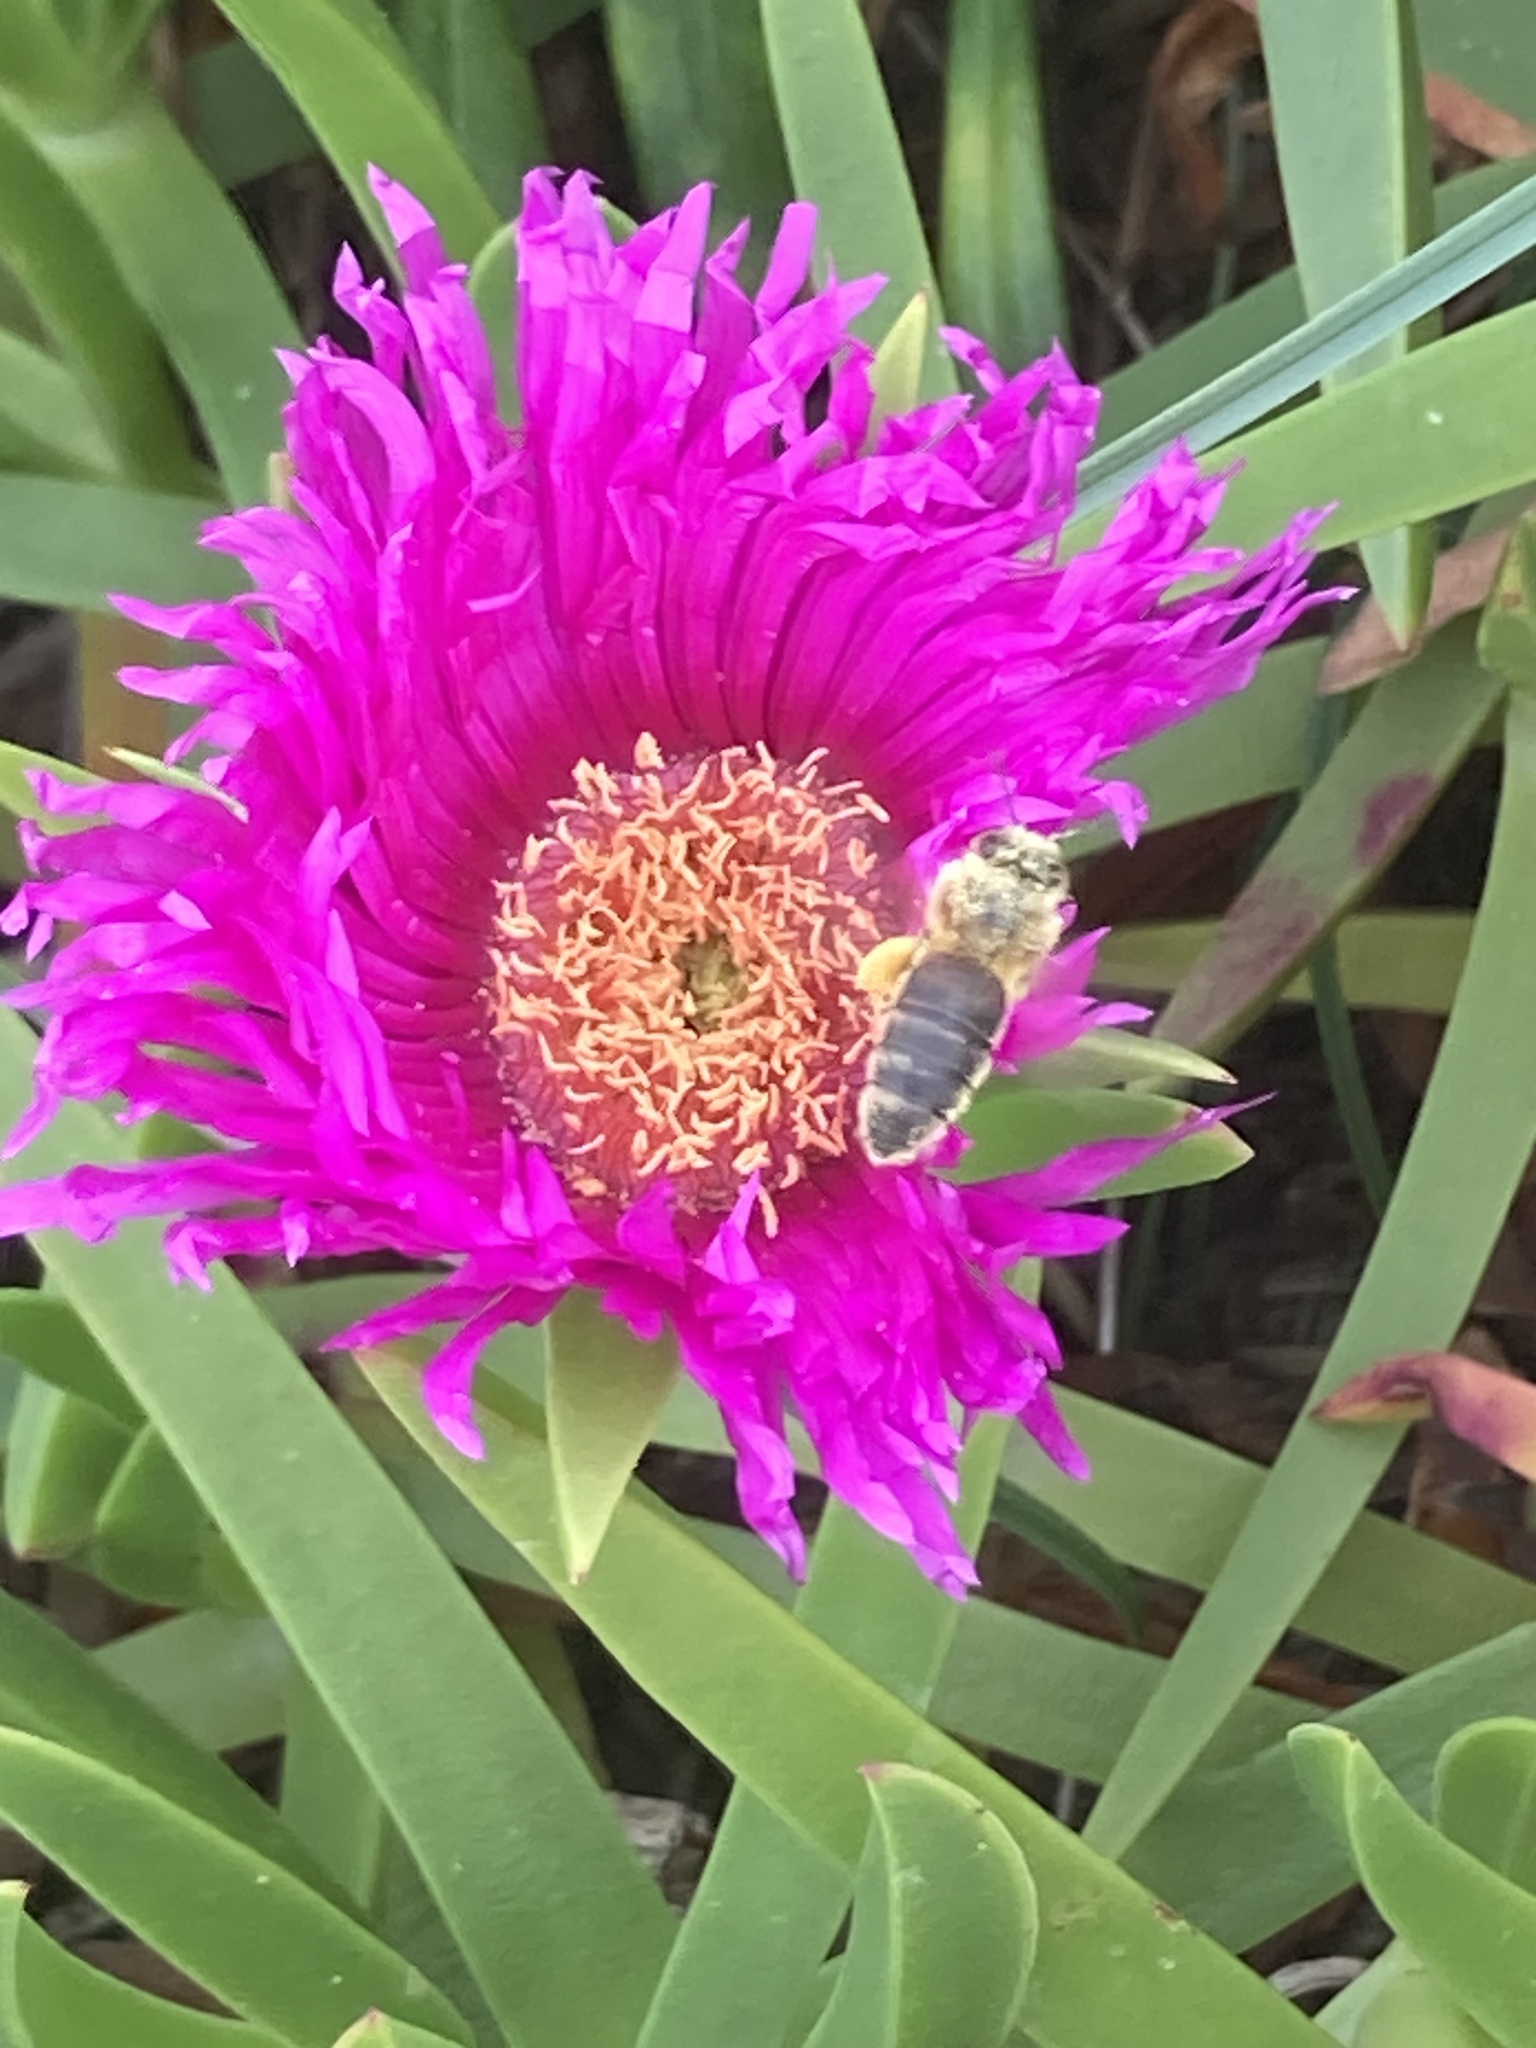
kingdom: Animalia
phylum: Arthropoda
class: Insecta
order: Hymenoptera
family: Apidae
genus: Apis
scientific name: Apis mellifera
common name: Honey bee
